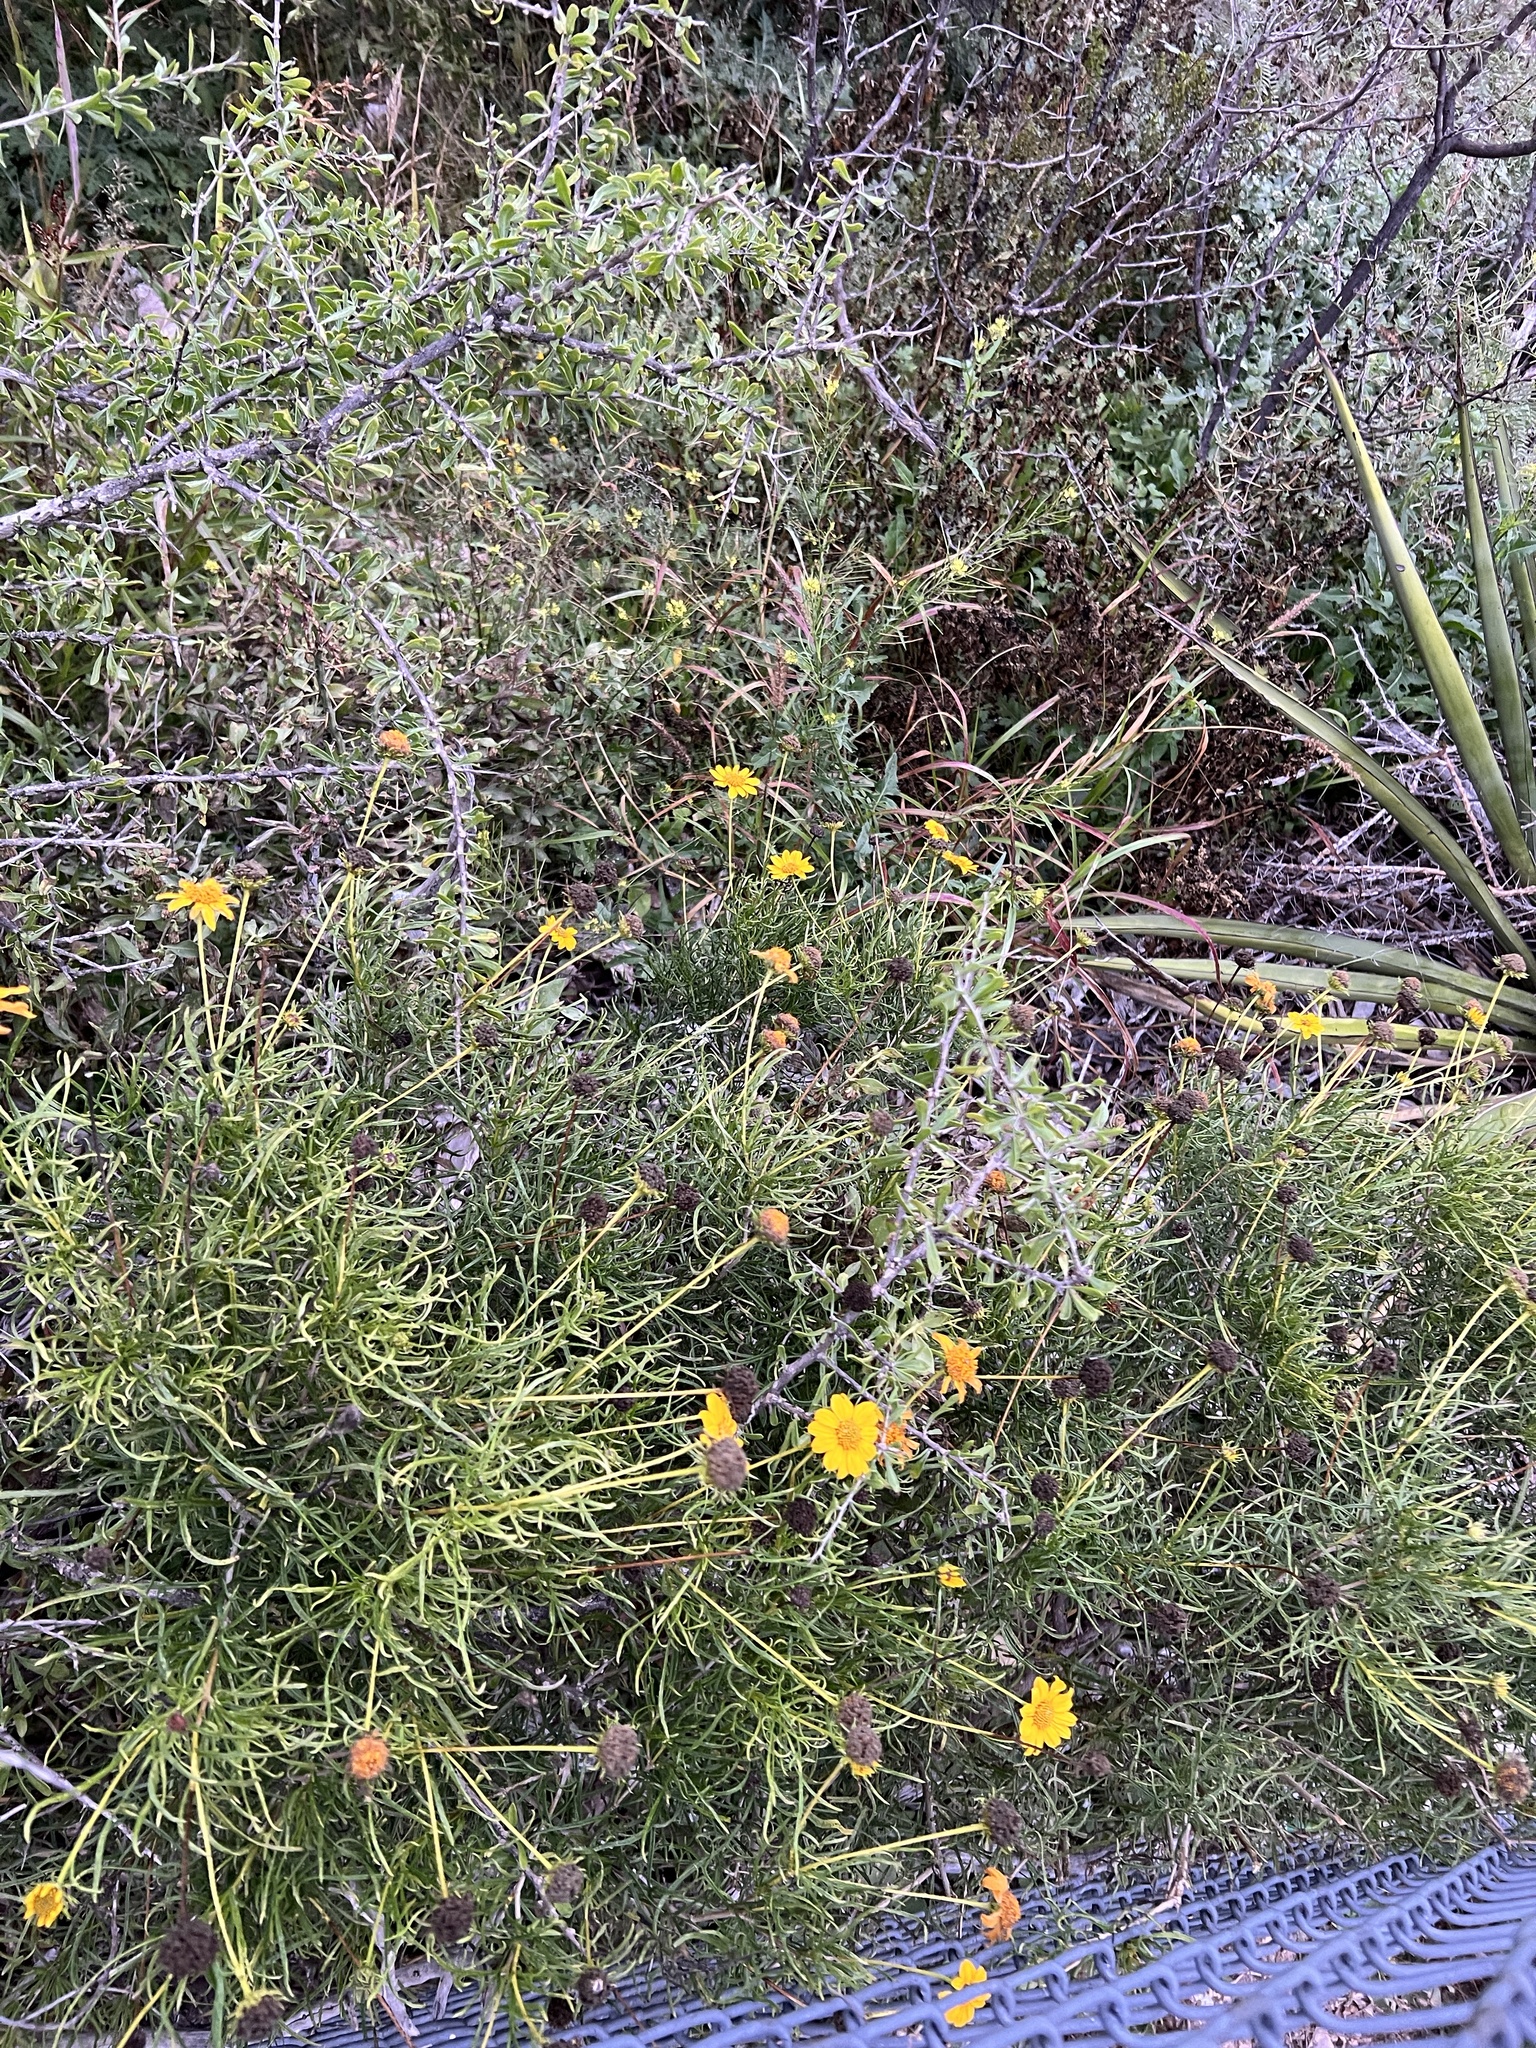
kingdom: Plantae
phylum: Tracheophyta
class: Magnoliopsida
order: Asterales
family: Asteraceae
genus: Sidneya
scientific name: Sidneya tenuifolia
